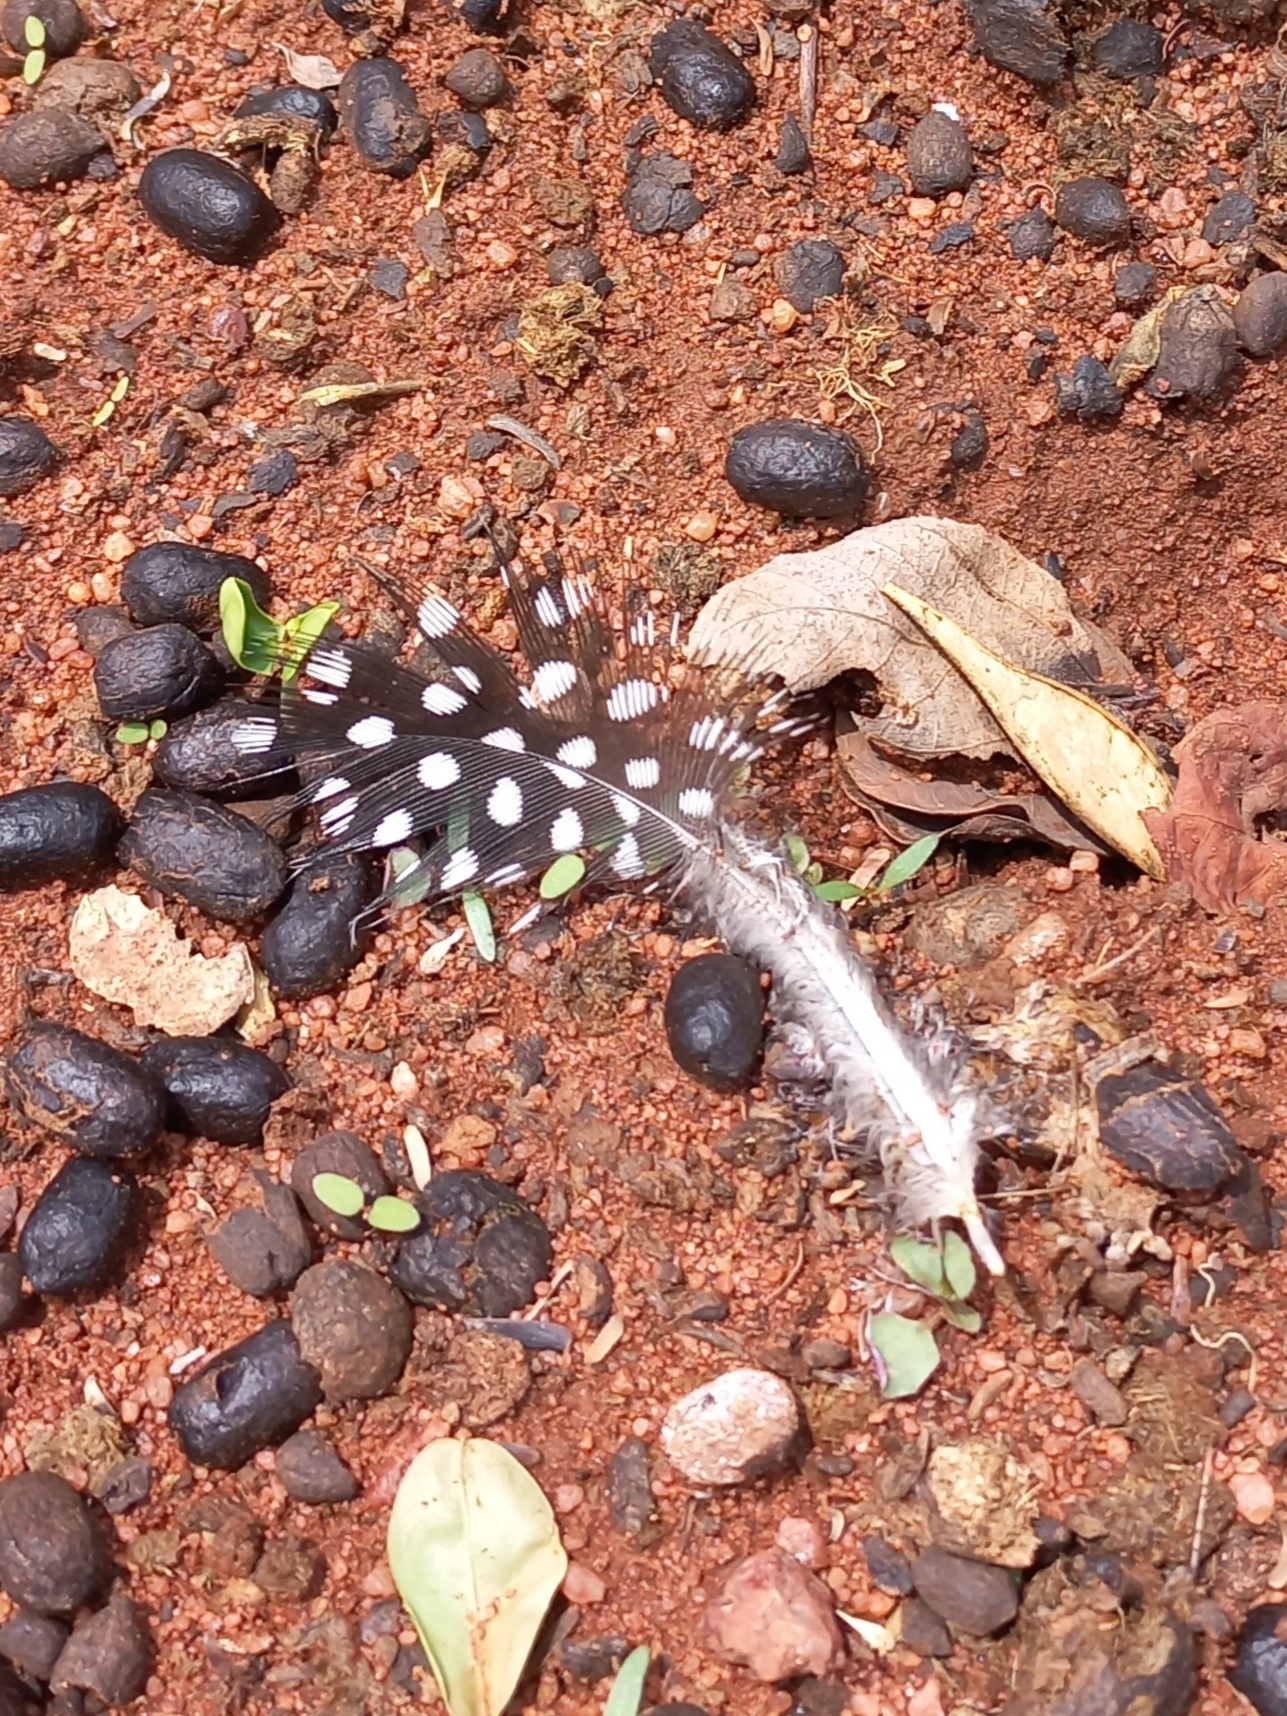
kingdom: Animalia
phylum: Chordata
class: Aves
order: Galliformes
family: Numididae
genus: Numida
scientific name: Numida meleagris
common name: Helmeted guineafowl
